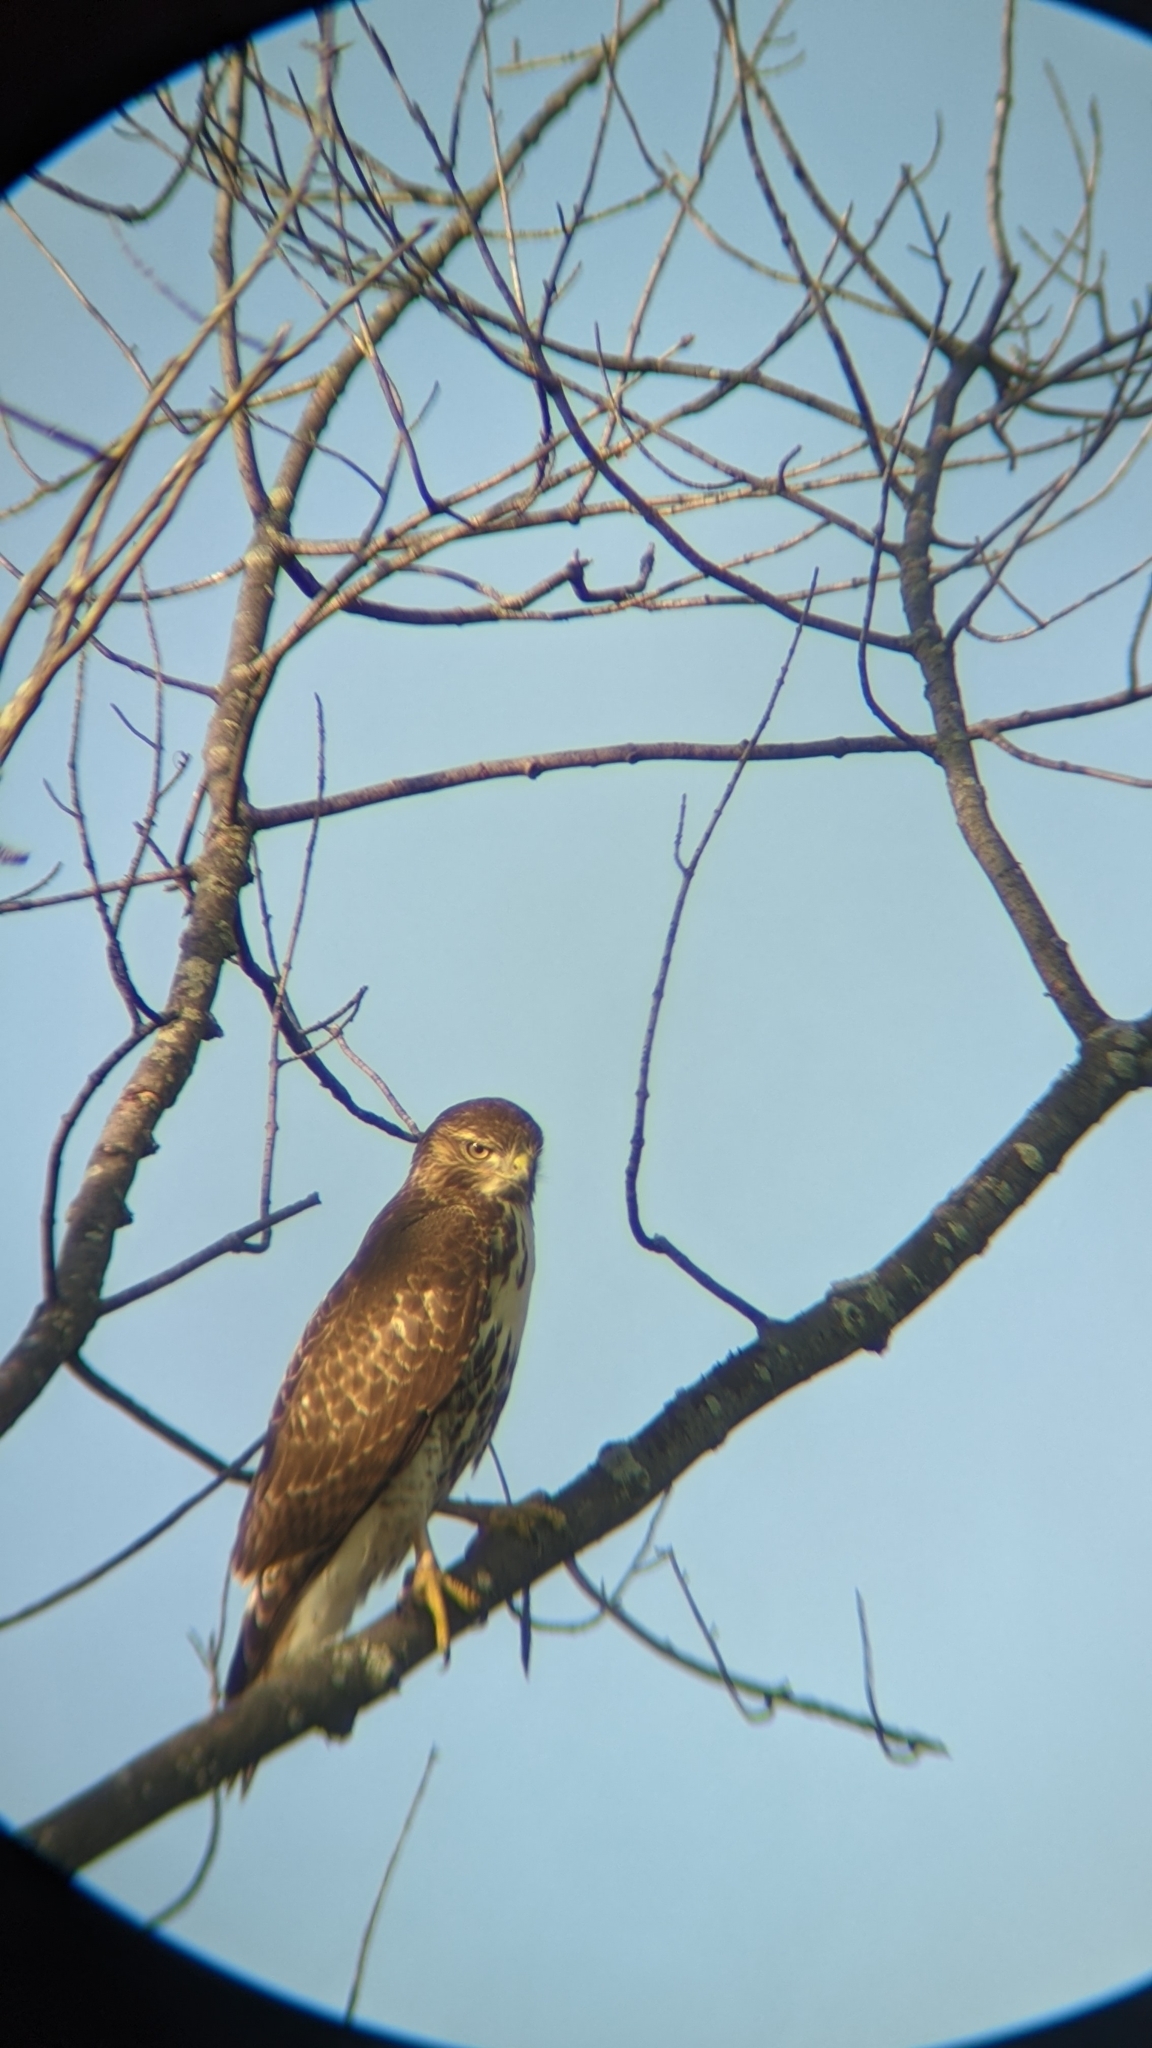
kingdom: Animalia
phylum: Chordata
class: Aves
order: Accipitriformes
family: Accipitridae
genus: Buteo
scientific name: Buteo jamaicensis
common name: Red-tailed hawk
